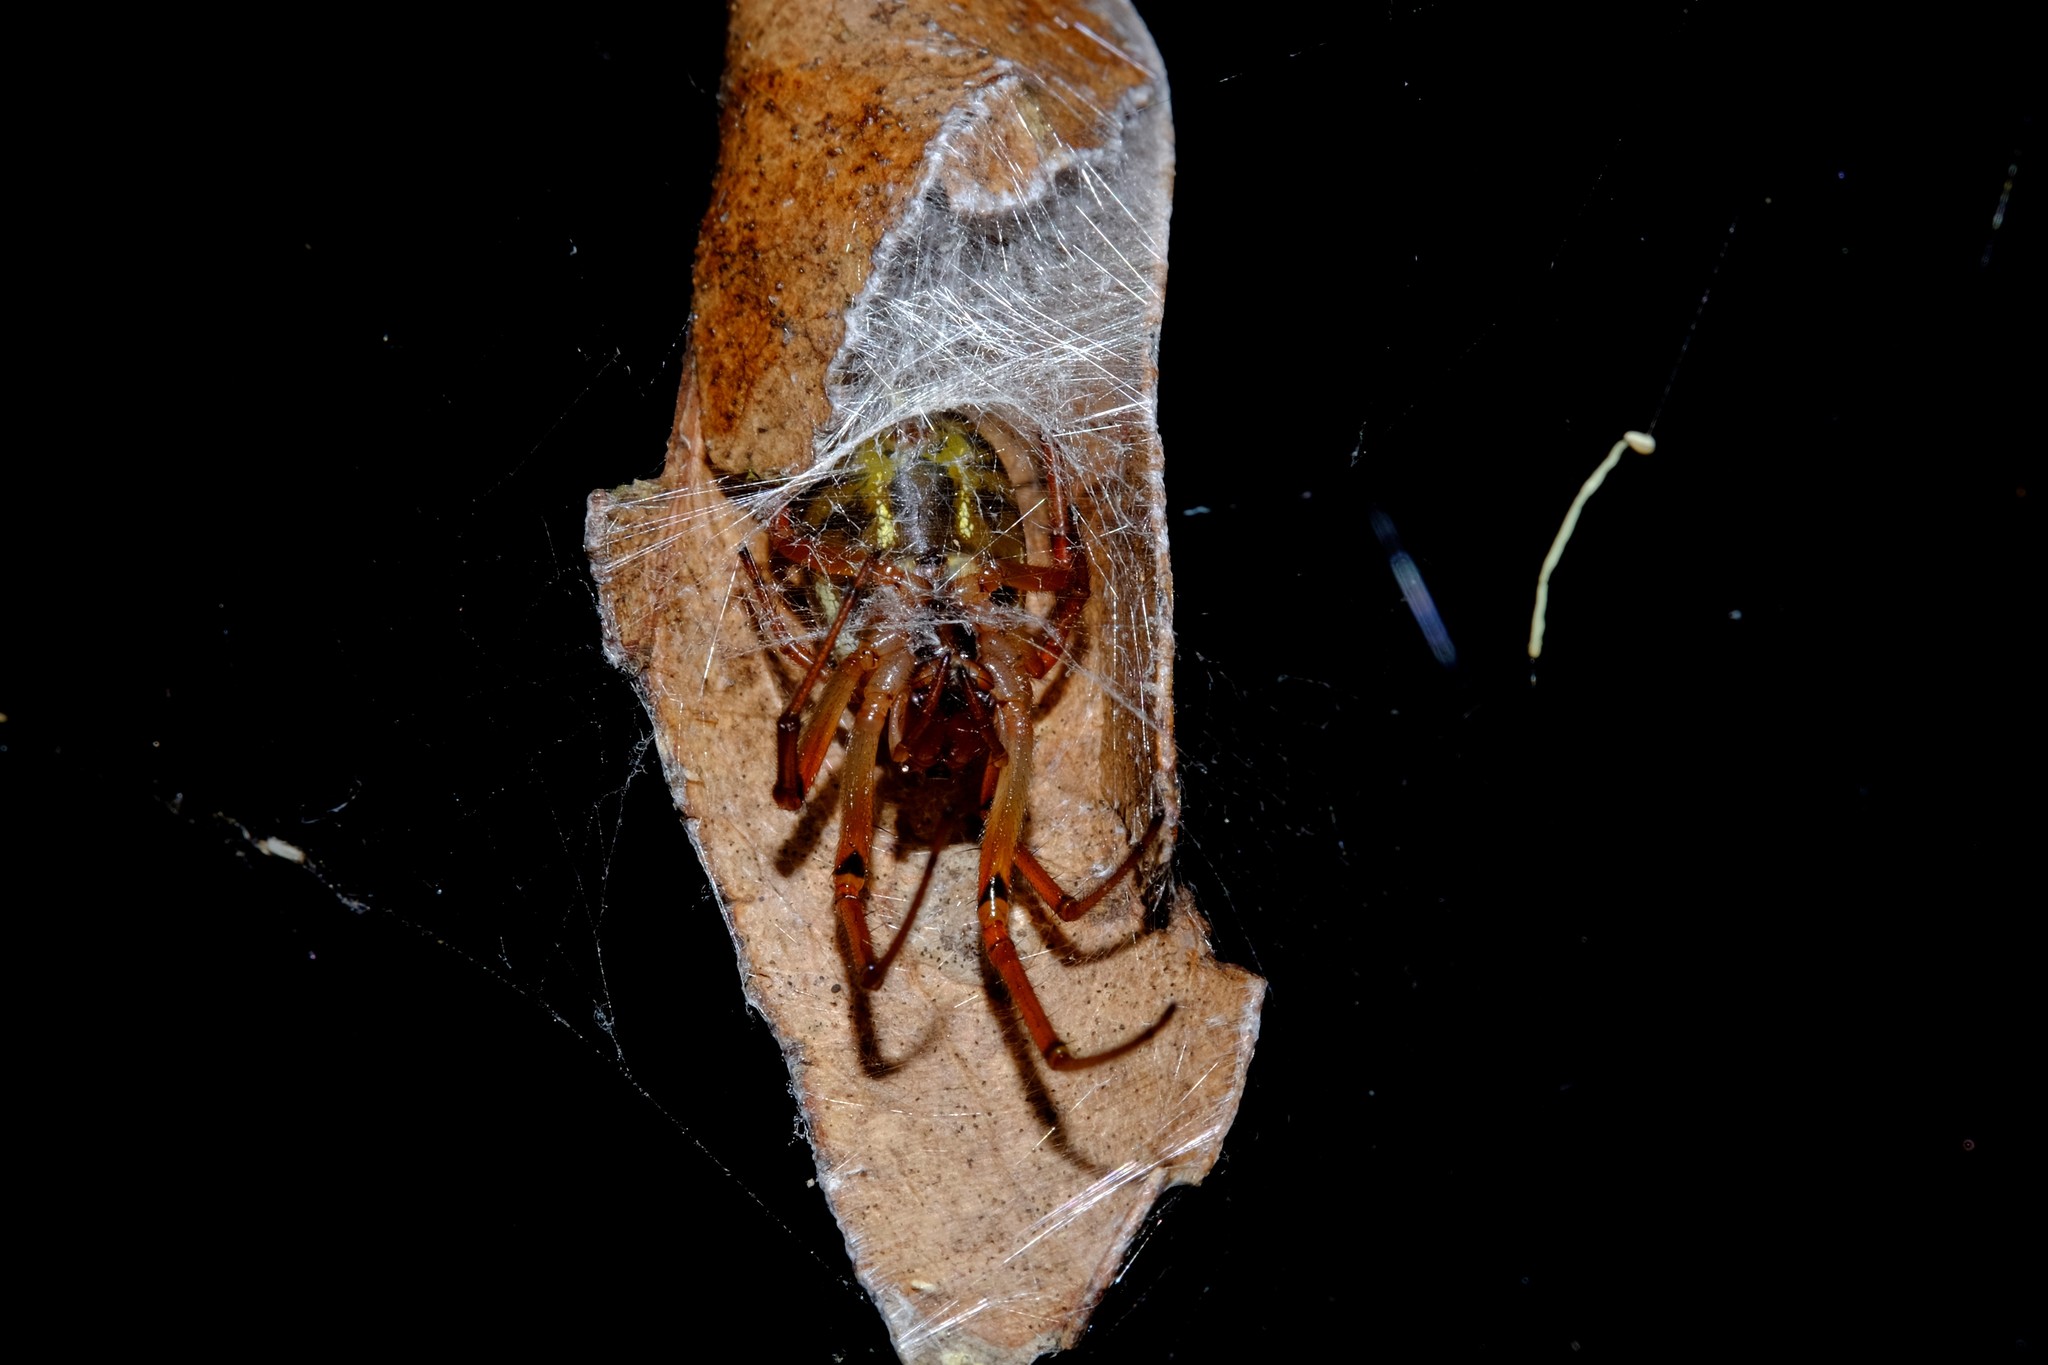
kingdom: Animalia
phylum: Arthropoda
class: Arachnida
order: Araneae
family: Araneidae
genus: Phonognatha
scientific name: Phonognatha graeffei
